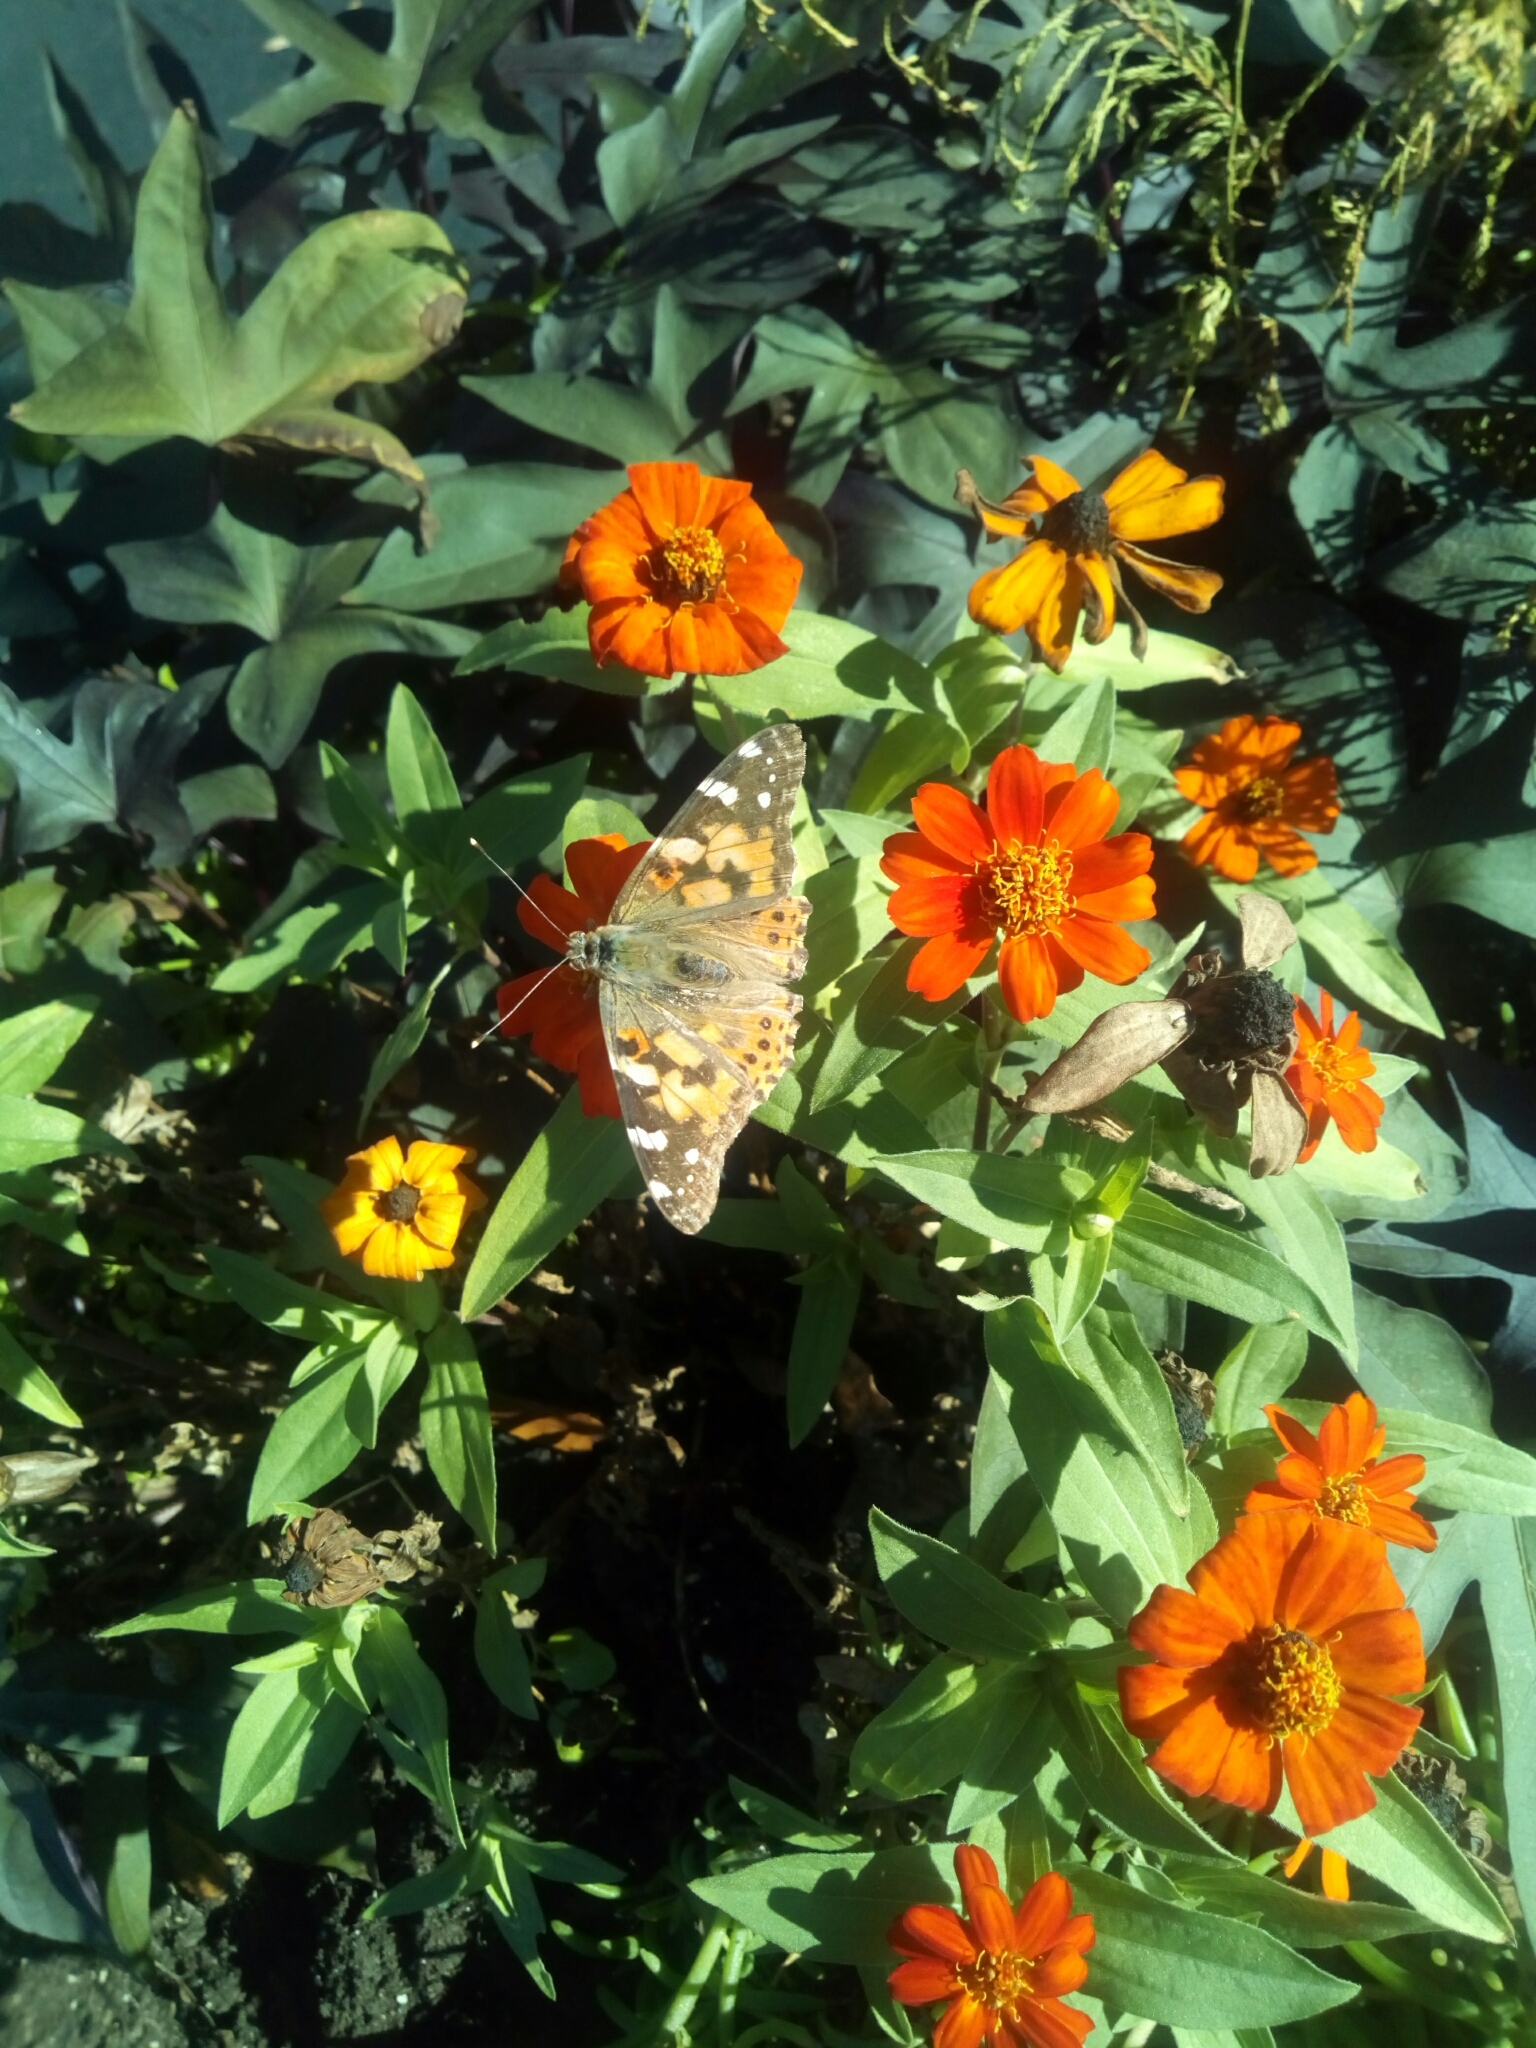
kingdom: Animalia
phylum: Arthropoda
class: Insecta
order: Lepidoptera
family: Nymphalidae
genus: Vanessa
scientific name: Vanessa cardui
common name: Painted lady
